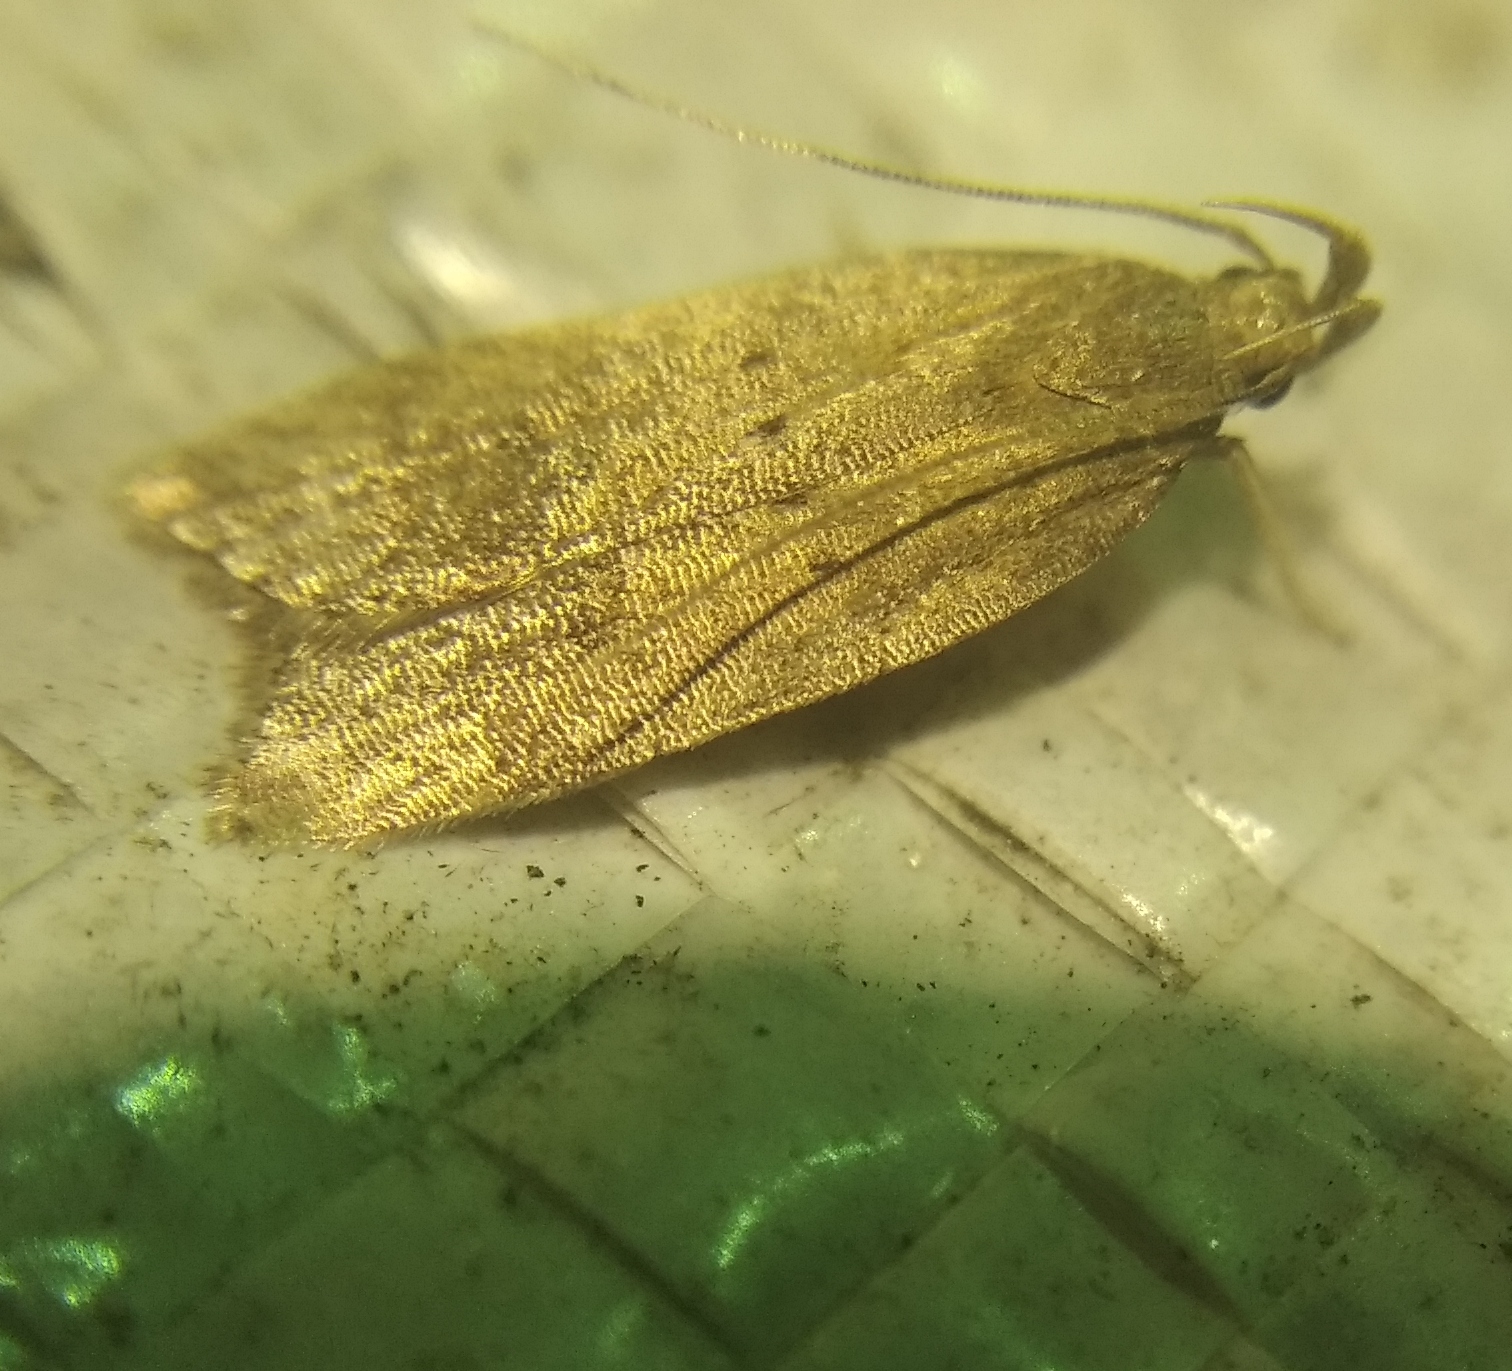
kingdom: Animalia
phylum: Arthropoda
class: Insecta
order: Lepidoptera
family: Gelechiidae
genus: Helcystogramma
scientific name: Helcystogramma lutatella
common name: Clay crest
